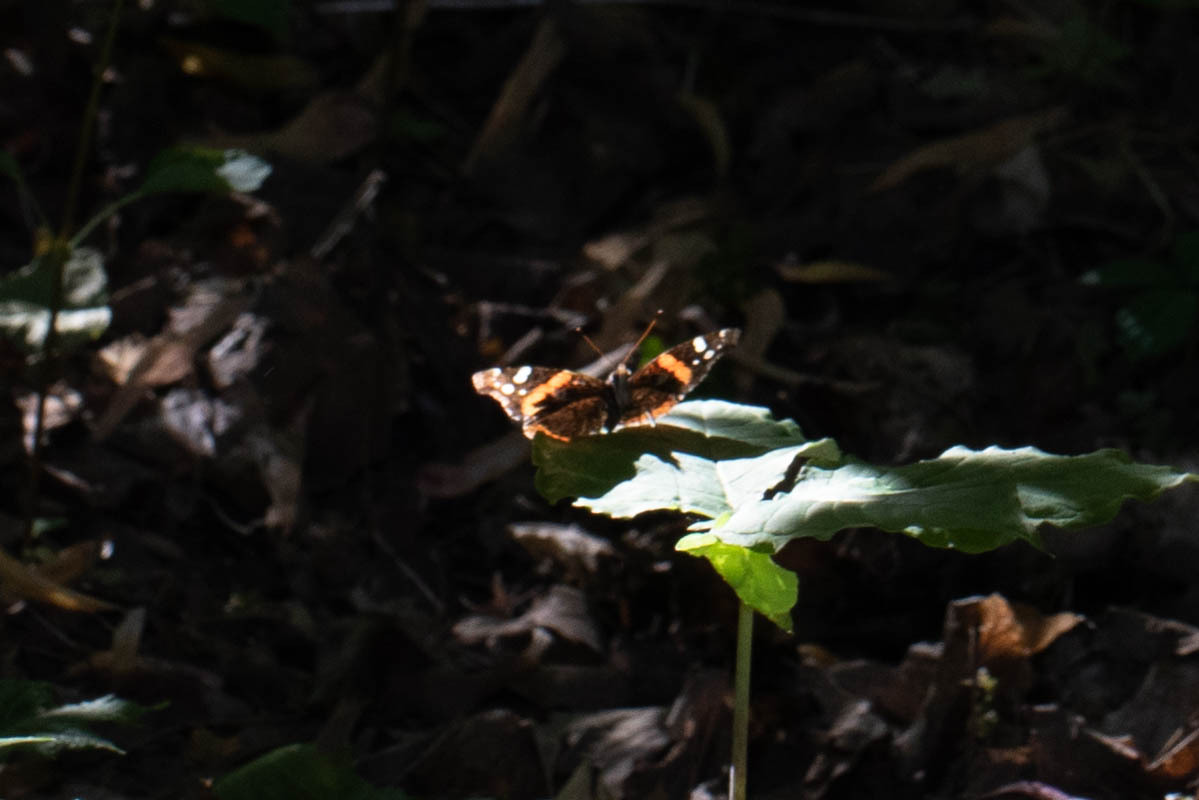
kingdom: Animalia
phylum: Arthropoda
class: Insecta
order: Lepidoptera
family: Nymphalidae
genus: Vanessa
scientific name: Vanessa atalanta
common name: Red admiral
